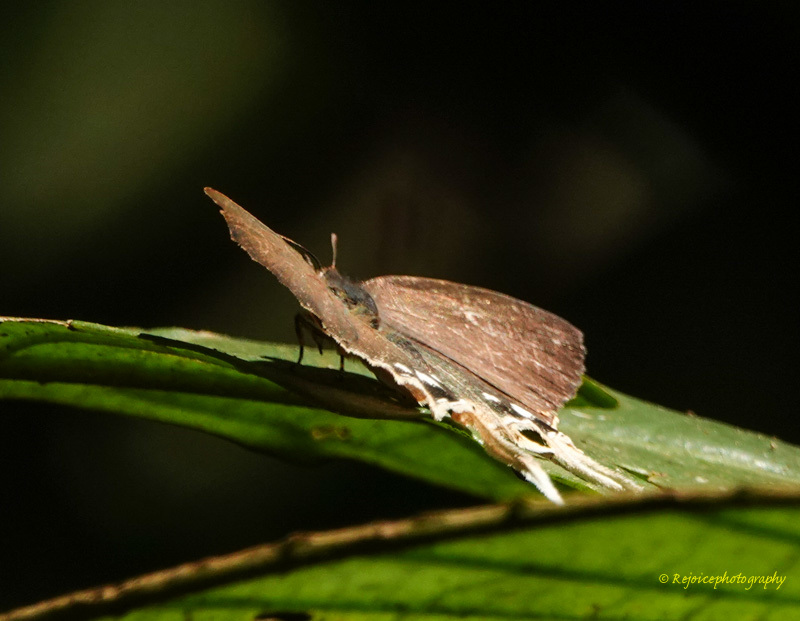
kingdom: Animalia
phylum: Arthropoda
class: Insecta
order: Lepidoptera
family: Lycaenidae
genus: Cheritra
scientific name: Cheritra freja
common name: Common imperial
